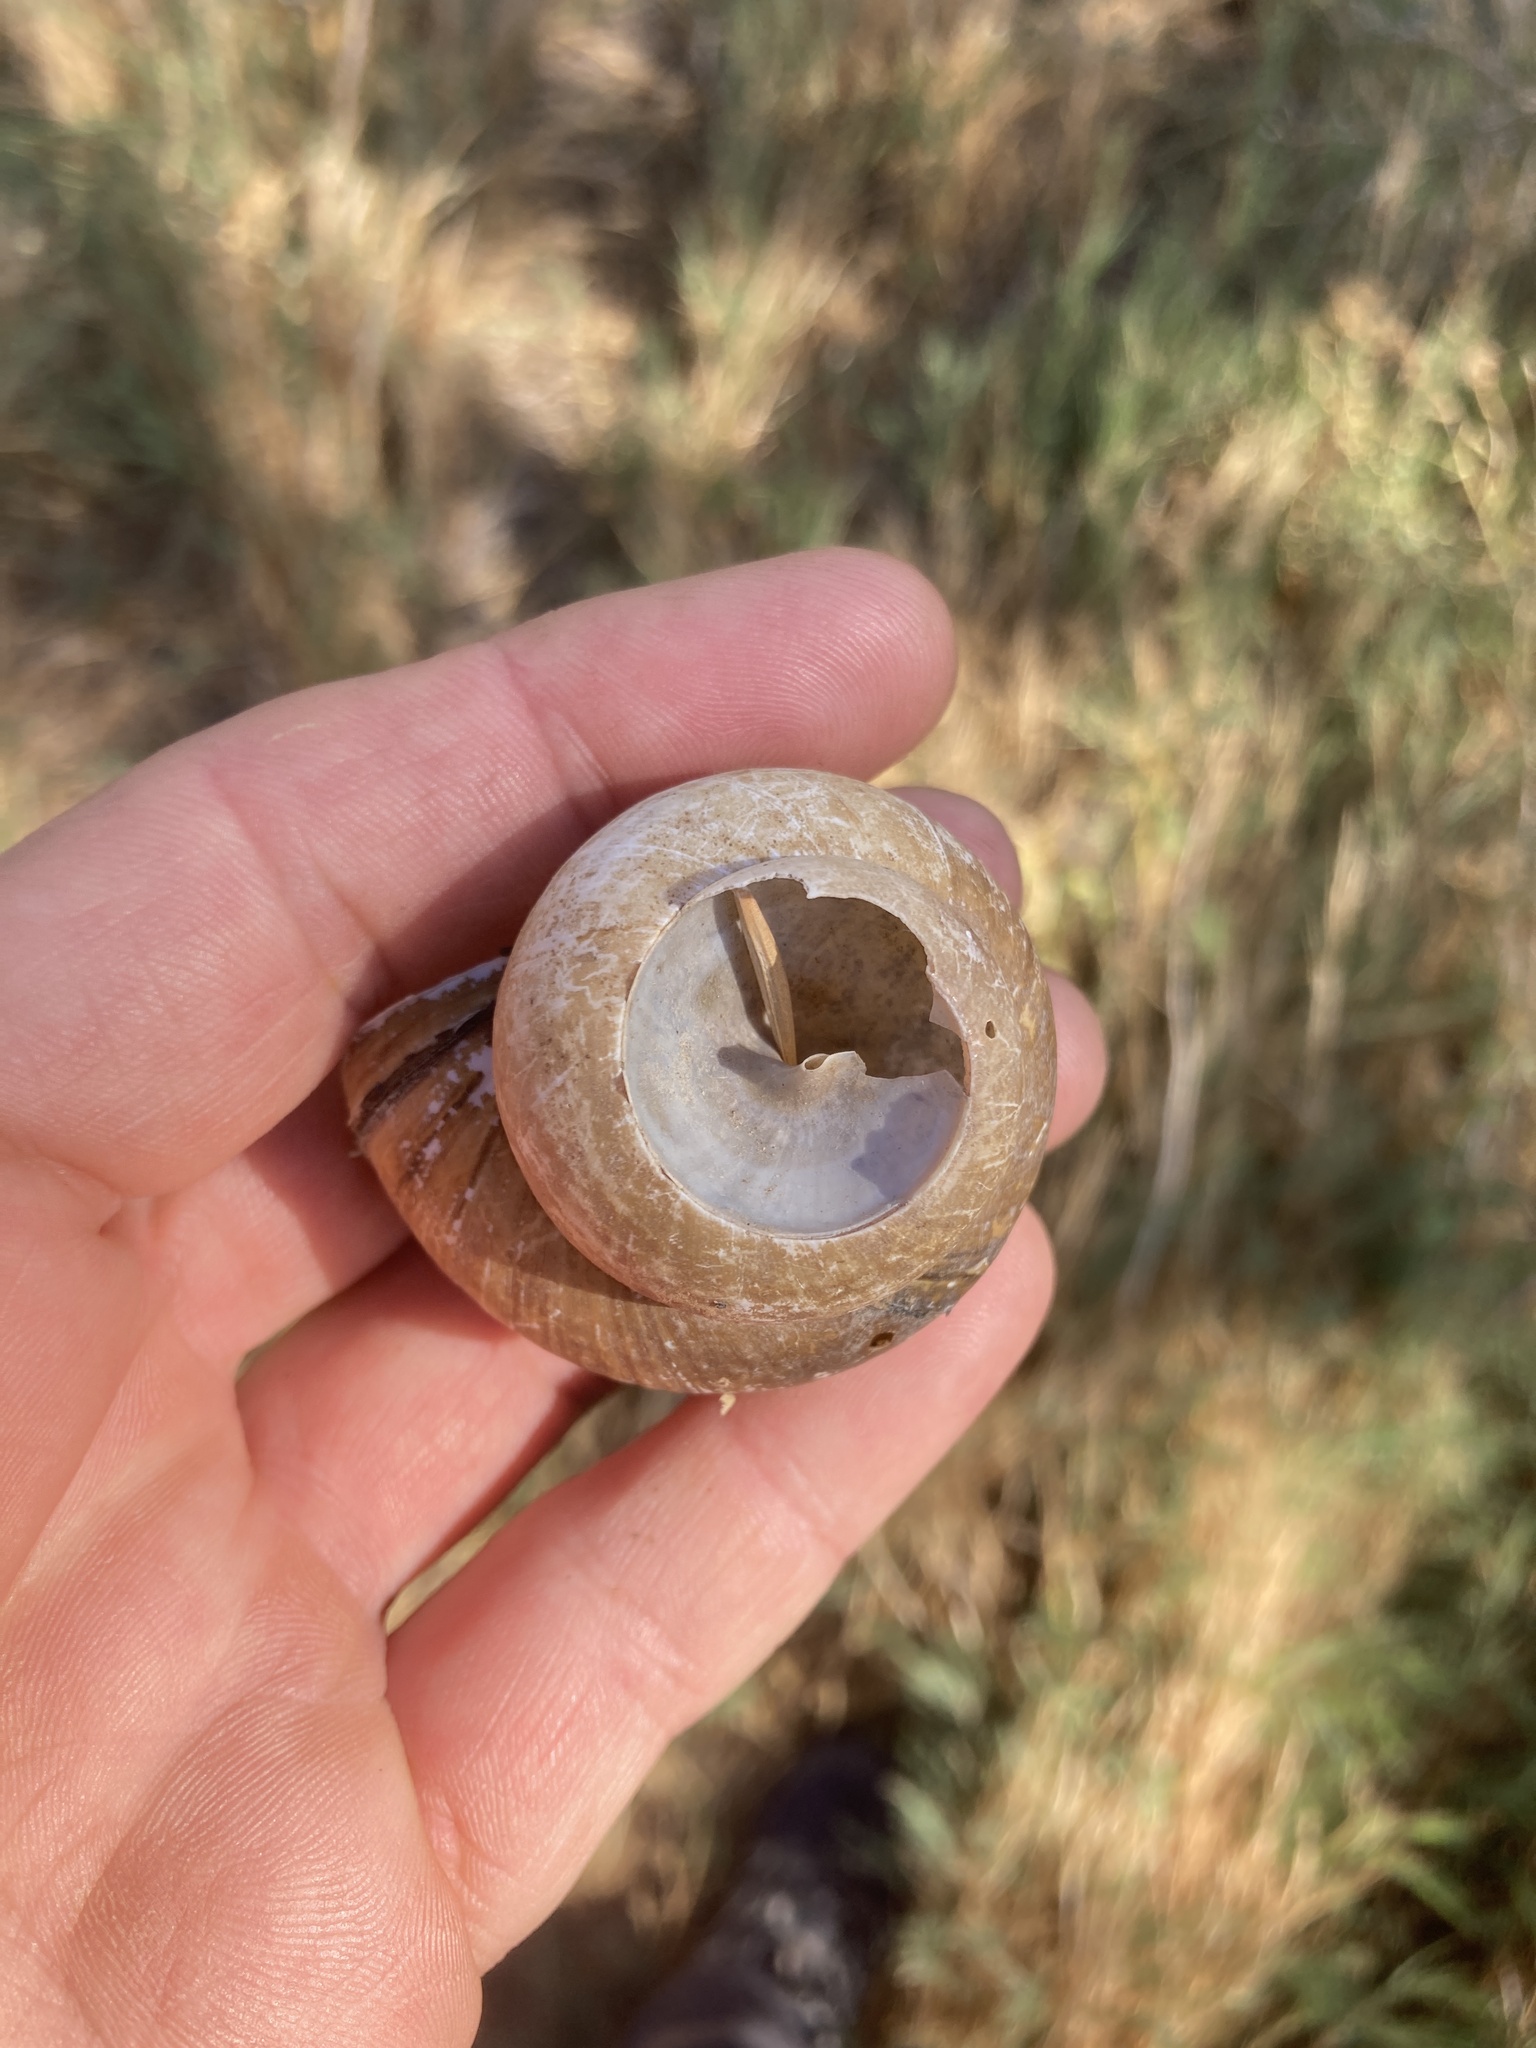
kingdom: Animalia
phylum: Mollusca
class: Gastropoda
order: Architaenioglossa
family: Viviparidae
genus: Cipangopaludina
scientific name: Cipangopaludina chinensis
